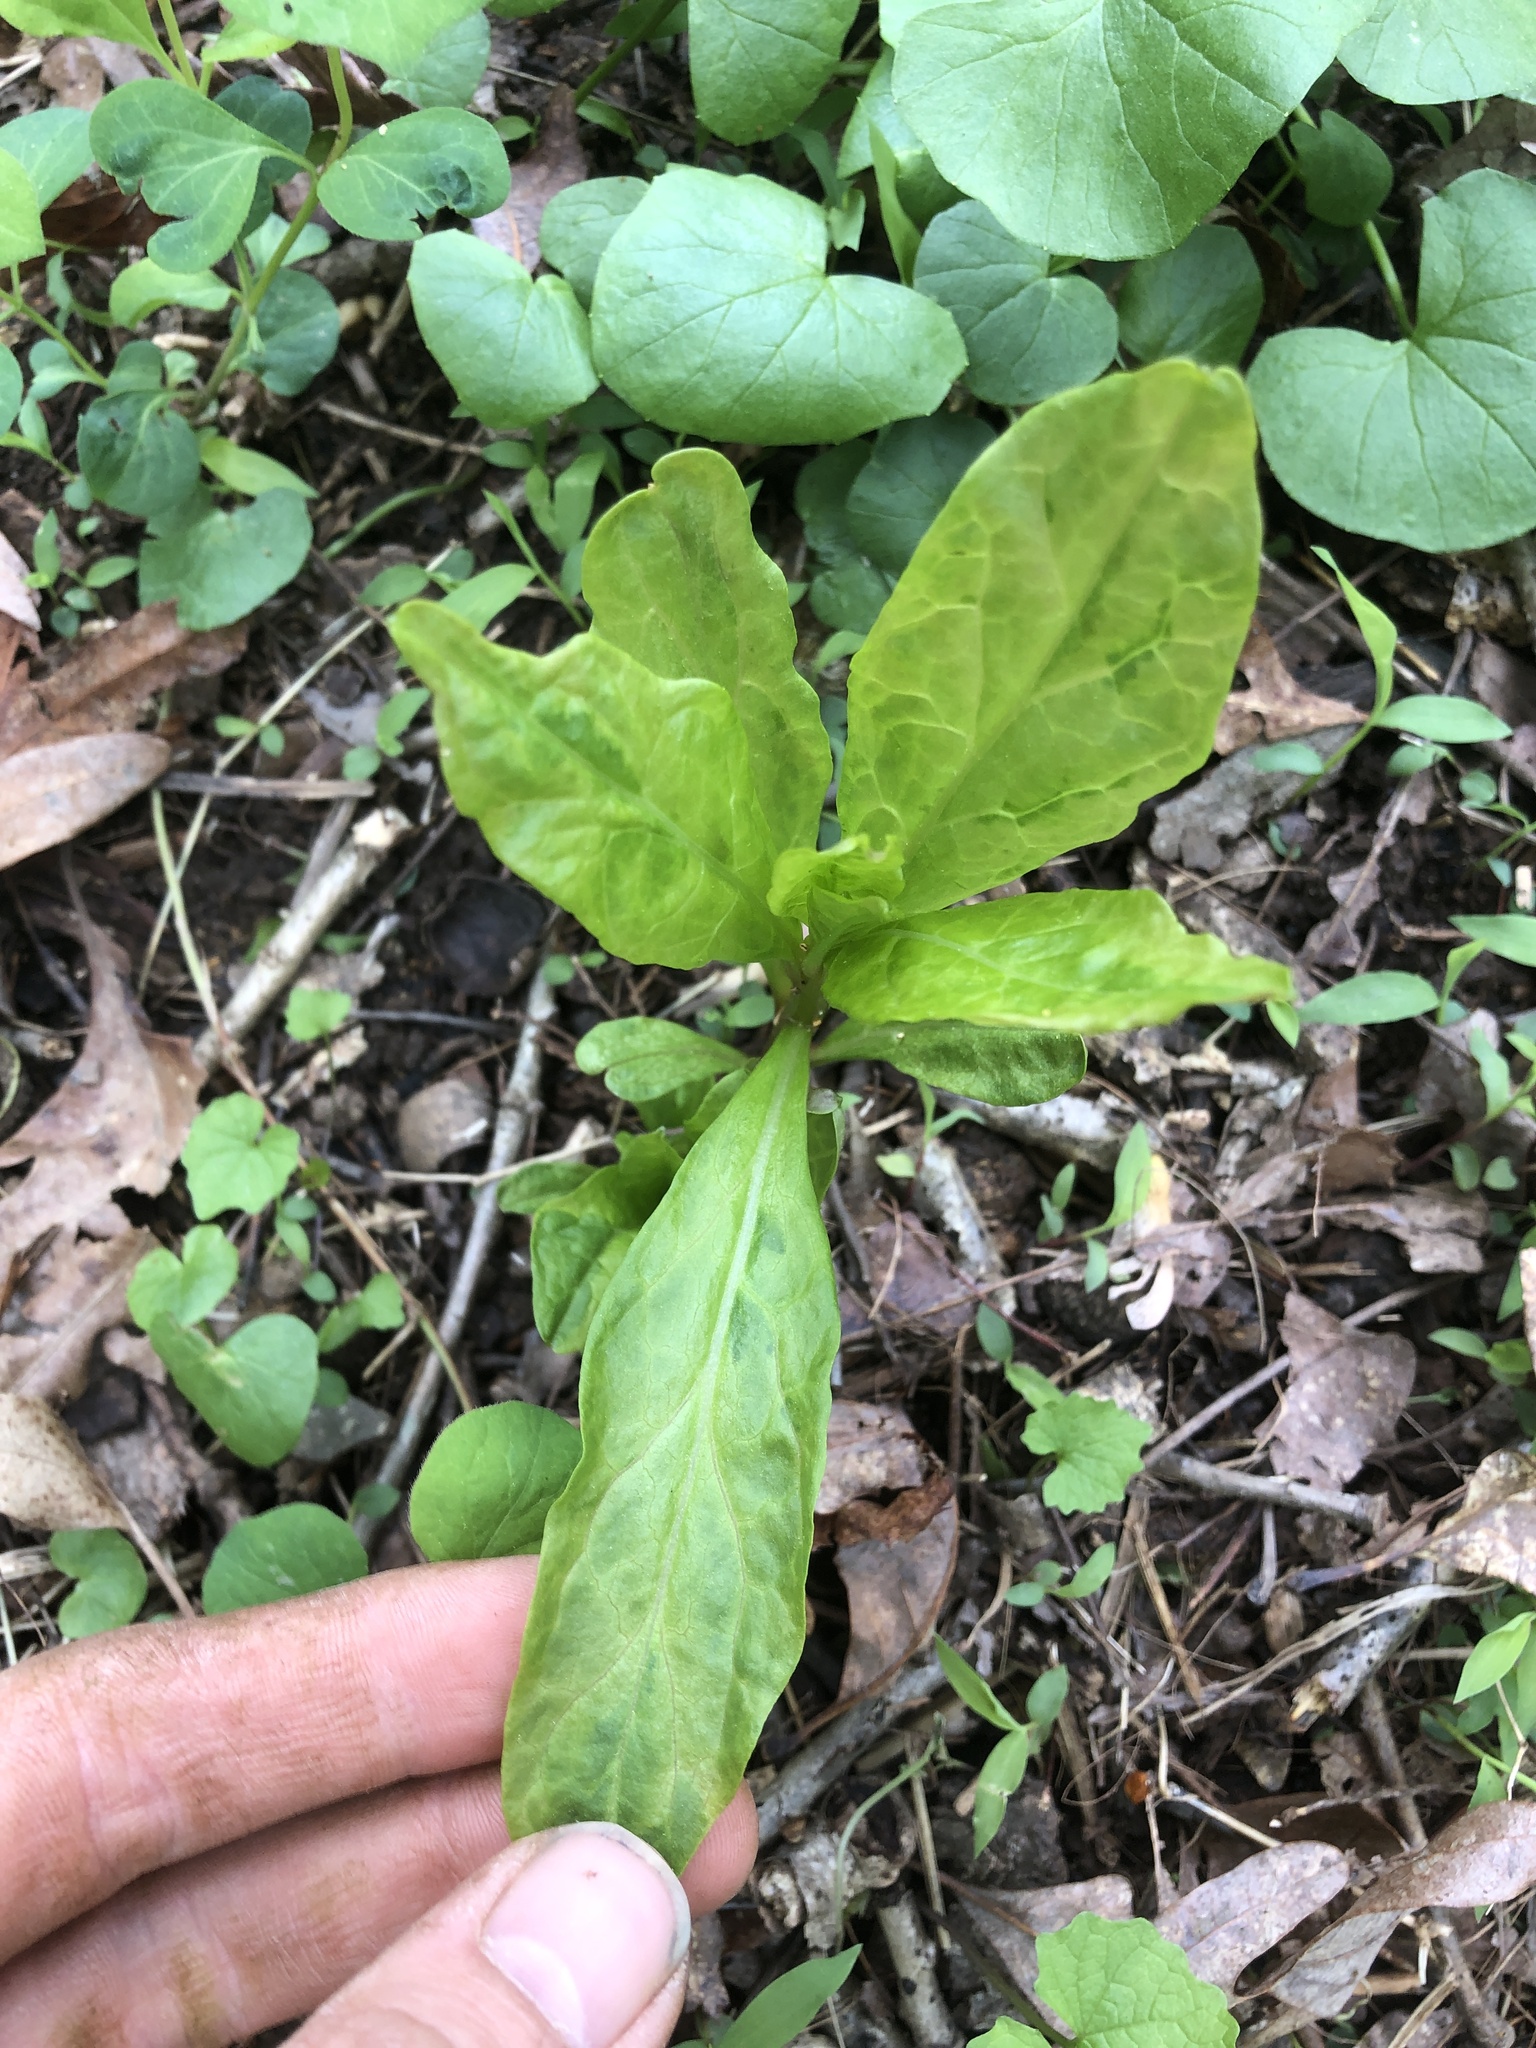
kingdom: Viruses
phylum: Pisuviricota
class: Stelpaviricetes
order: Patatavirales
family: Potyviridae
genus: Potyvirus
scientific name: Potyvirus Pokeweed mosaic virus
